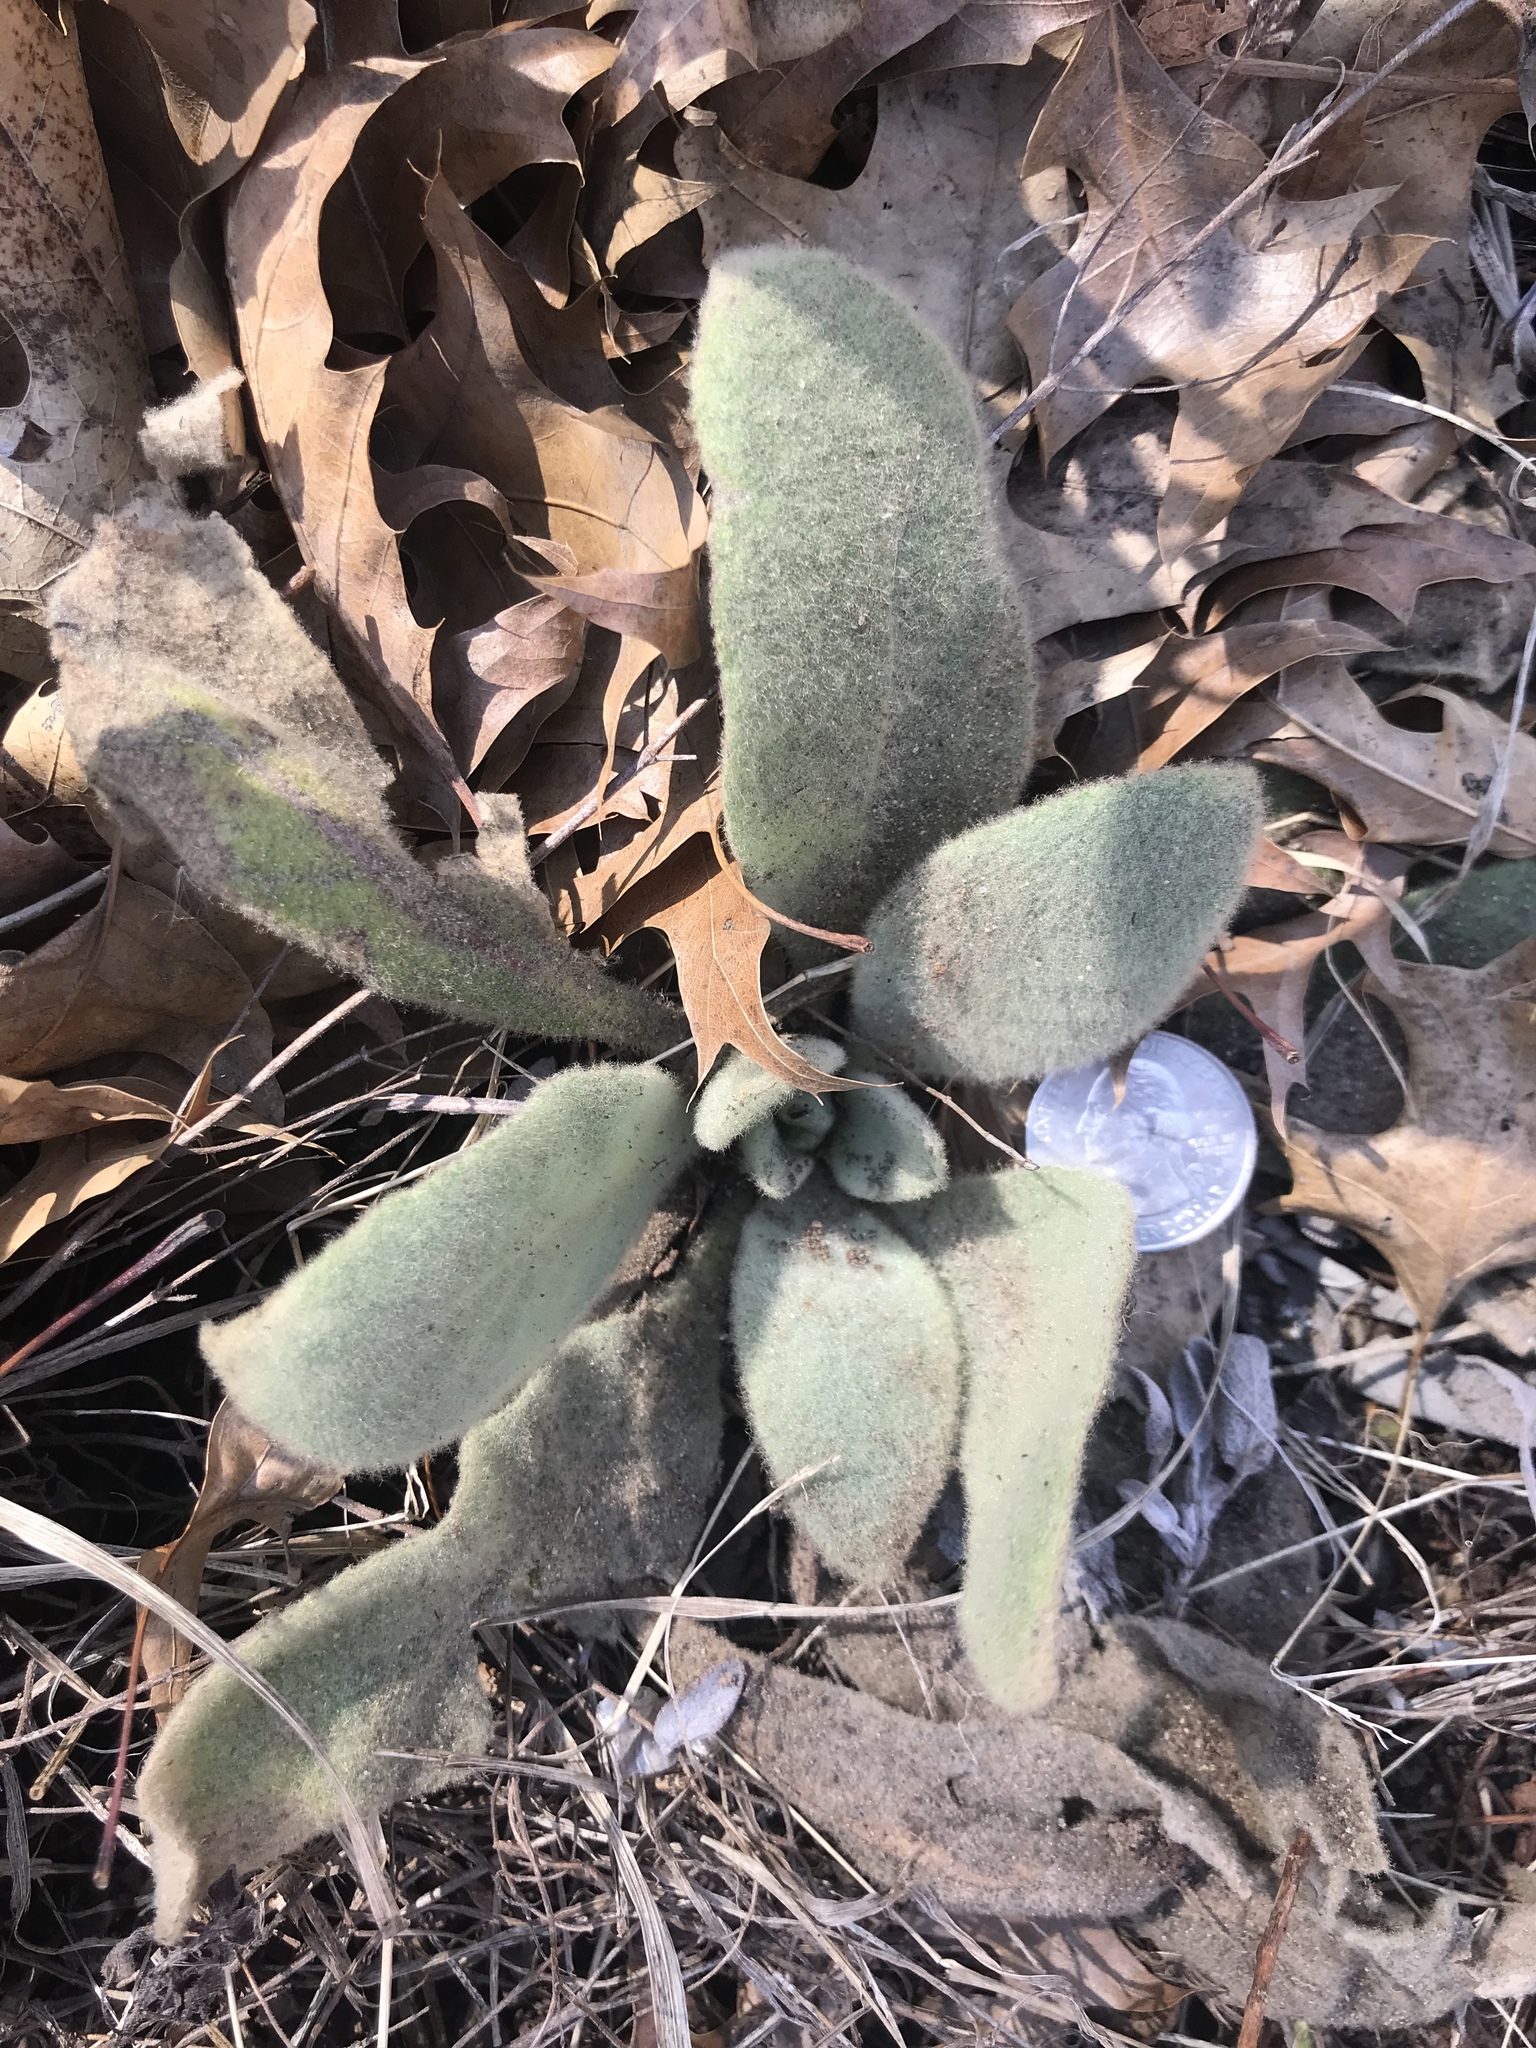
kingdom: Plantae
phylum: Tracheophyta
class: Magnoliopsida
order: Lamiales
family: Scrophulariaceae
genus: Verbascum
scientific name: Verbascum thapsus
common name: Common mullein
